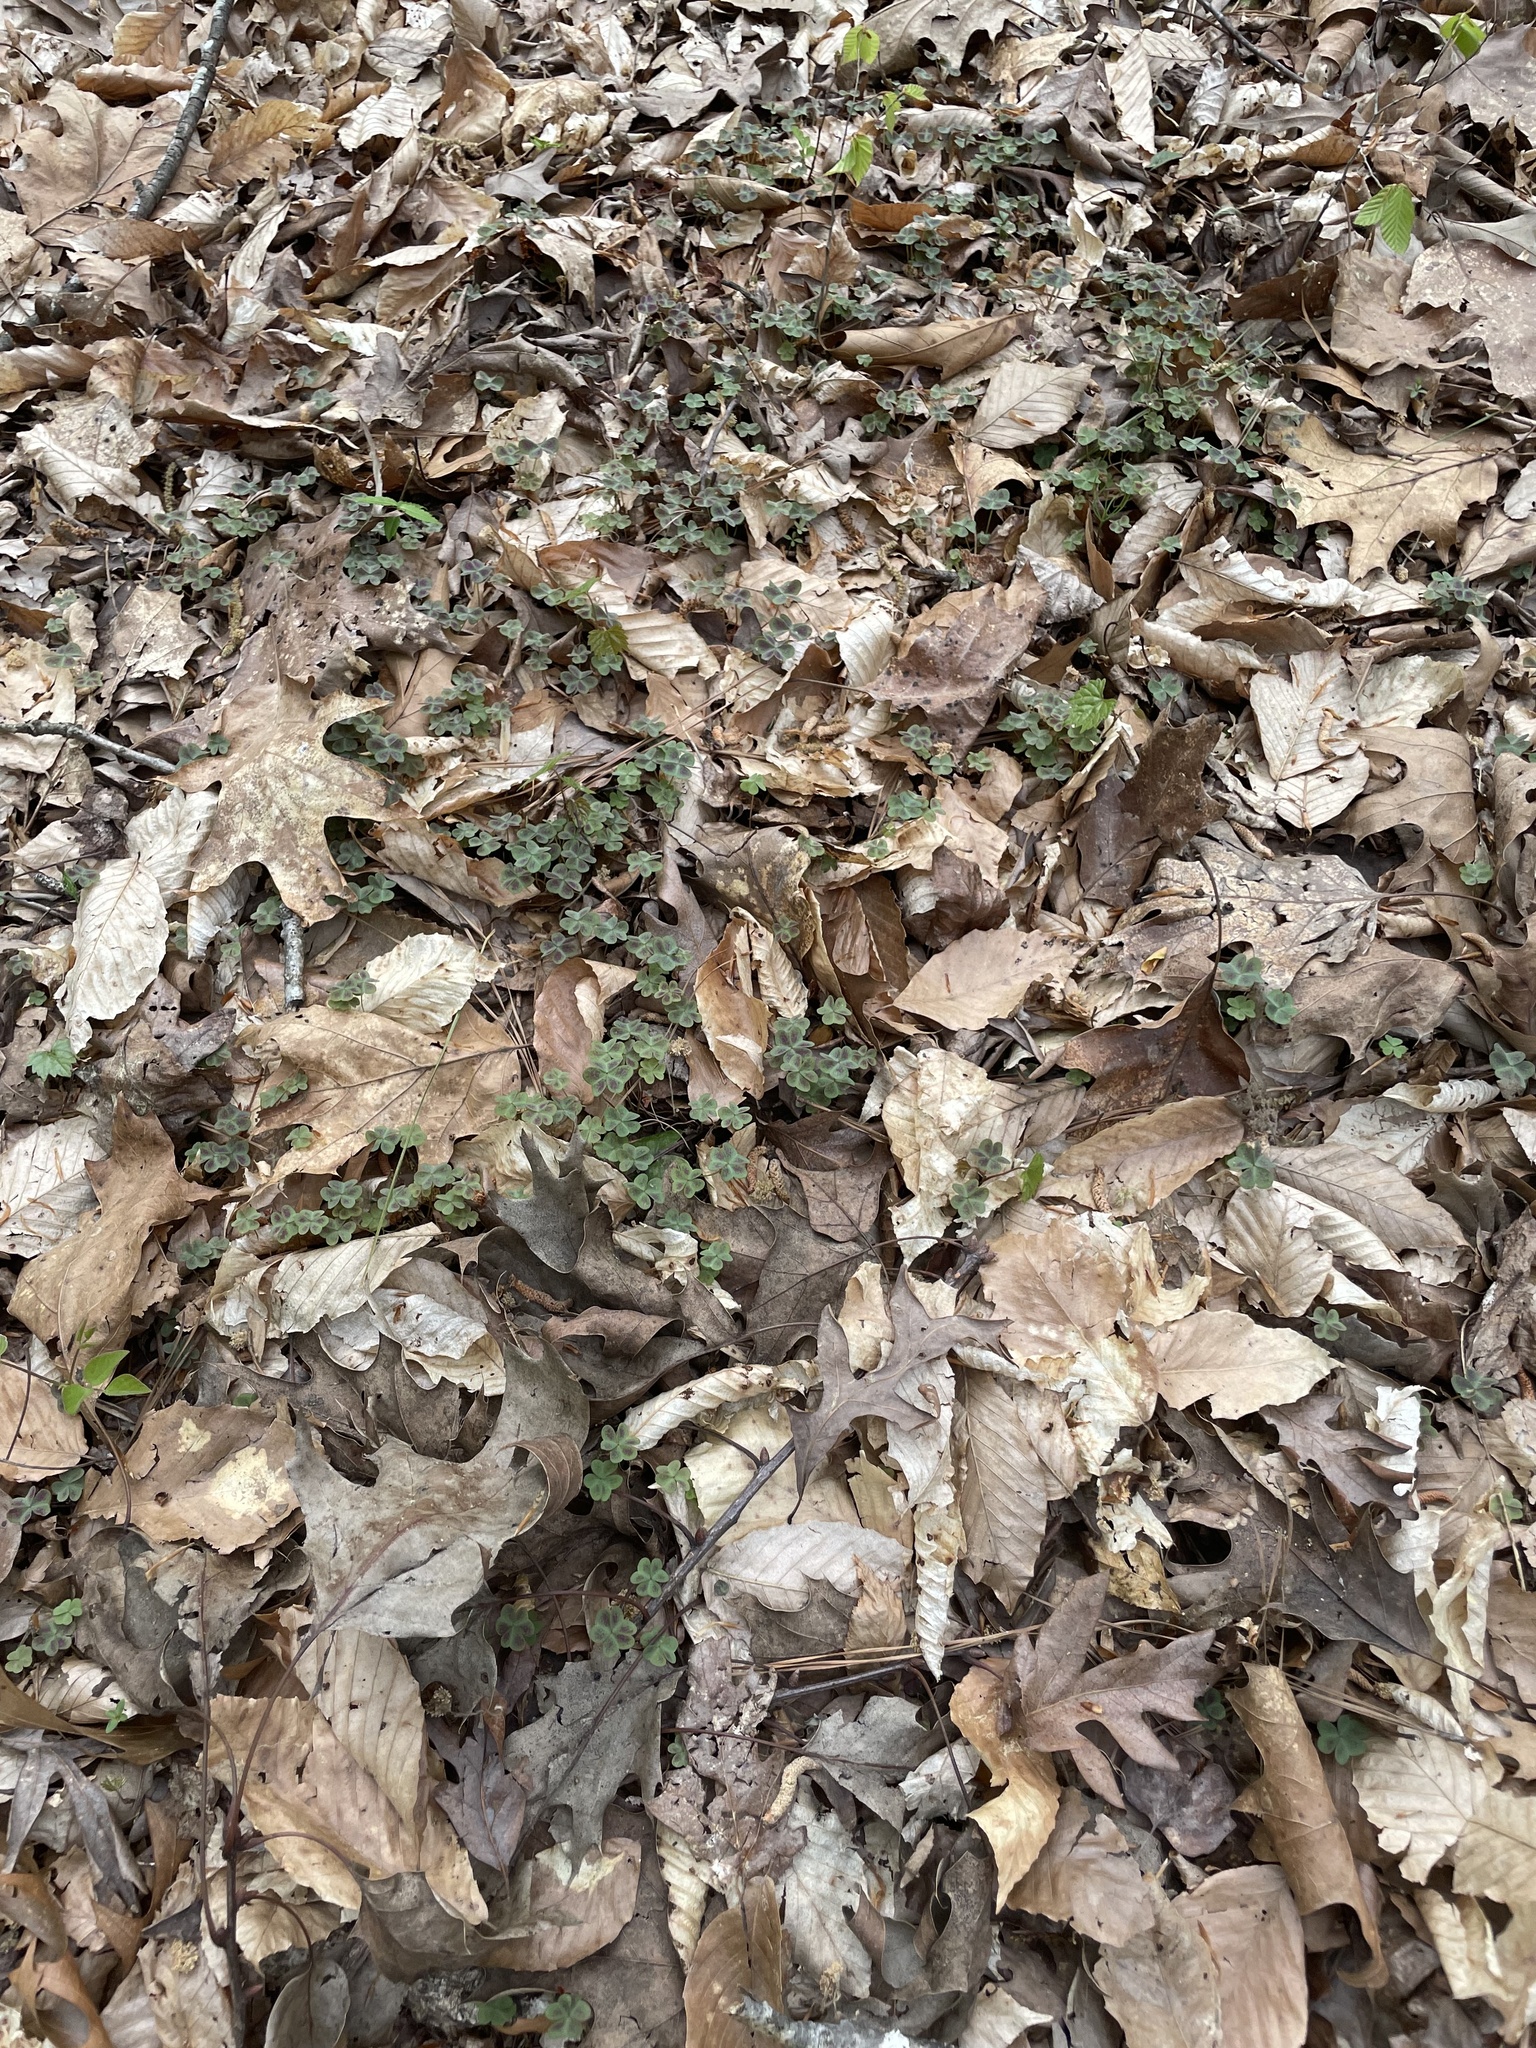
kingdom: Plantae
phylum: Tracheophyta
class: Magnoliopsida
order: Oxalidales
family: Oxalidaceae
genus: Oxalis
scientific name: Oxalis violacea
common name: Violet wood-sorrel
